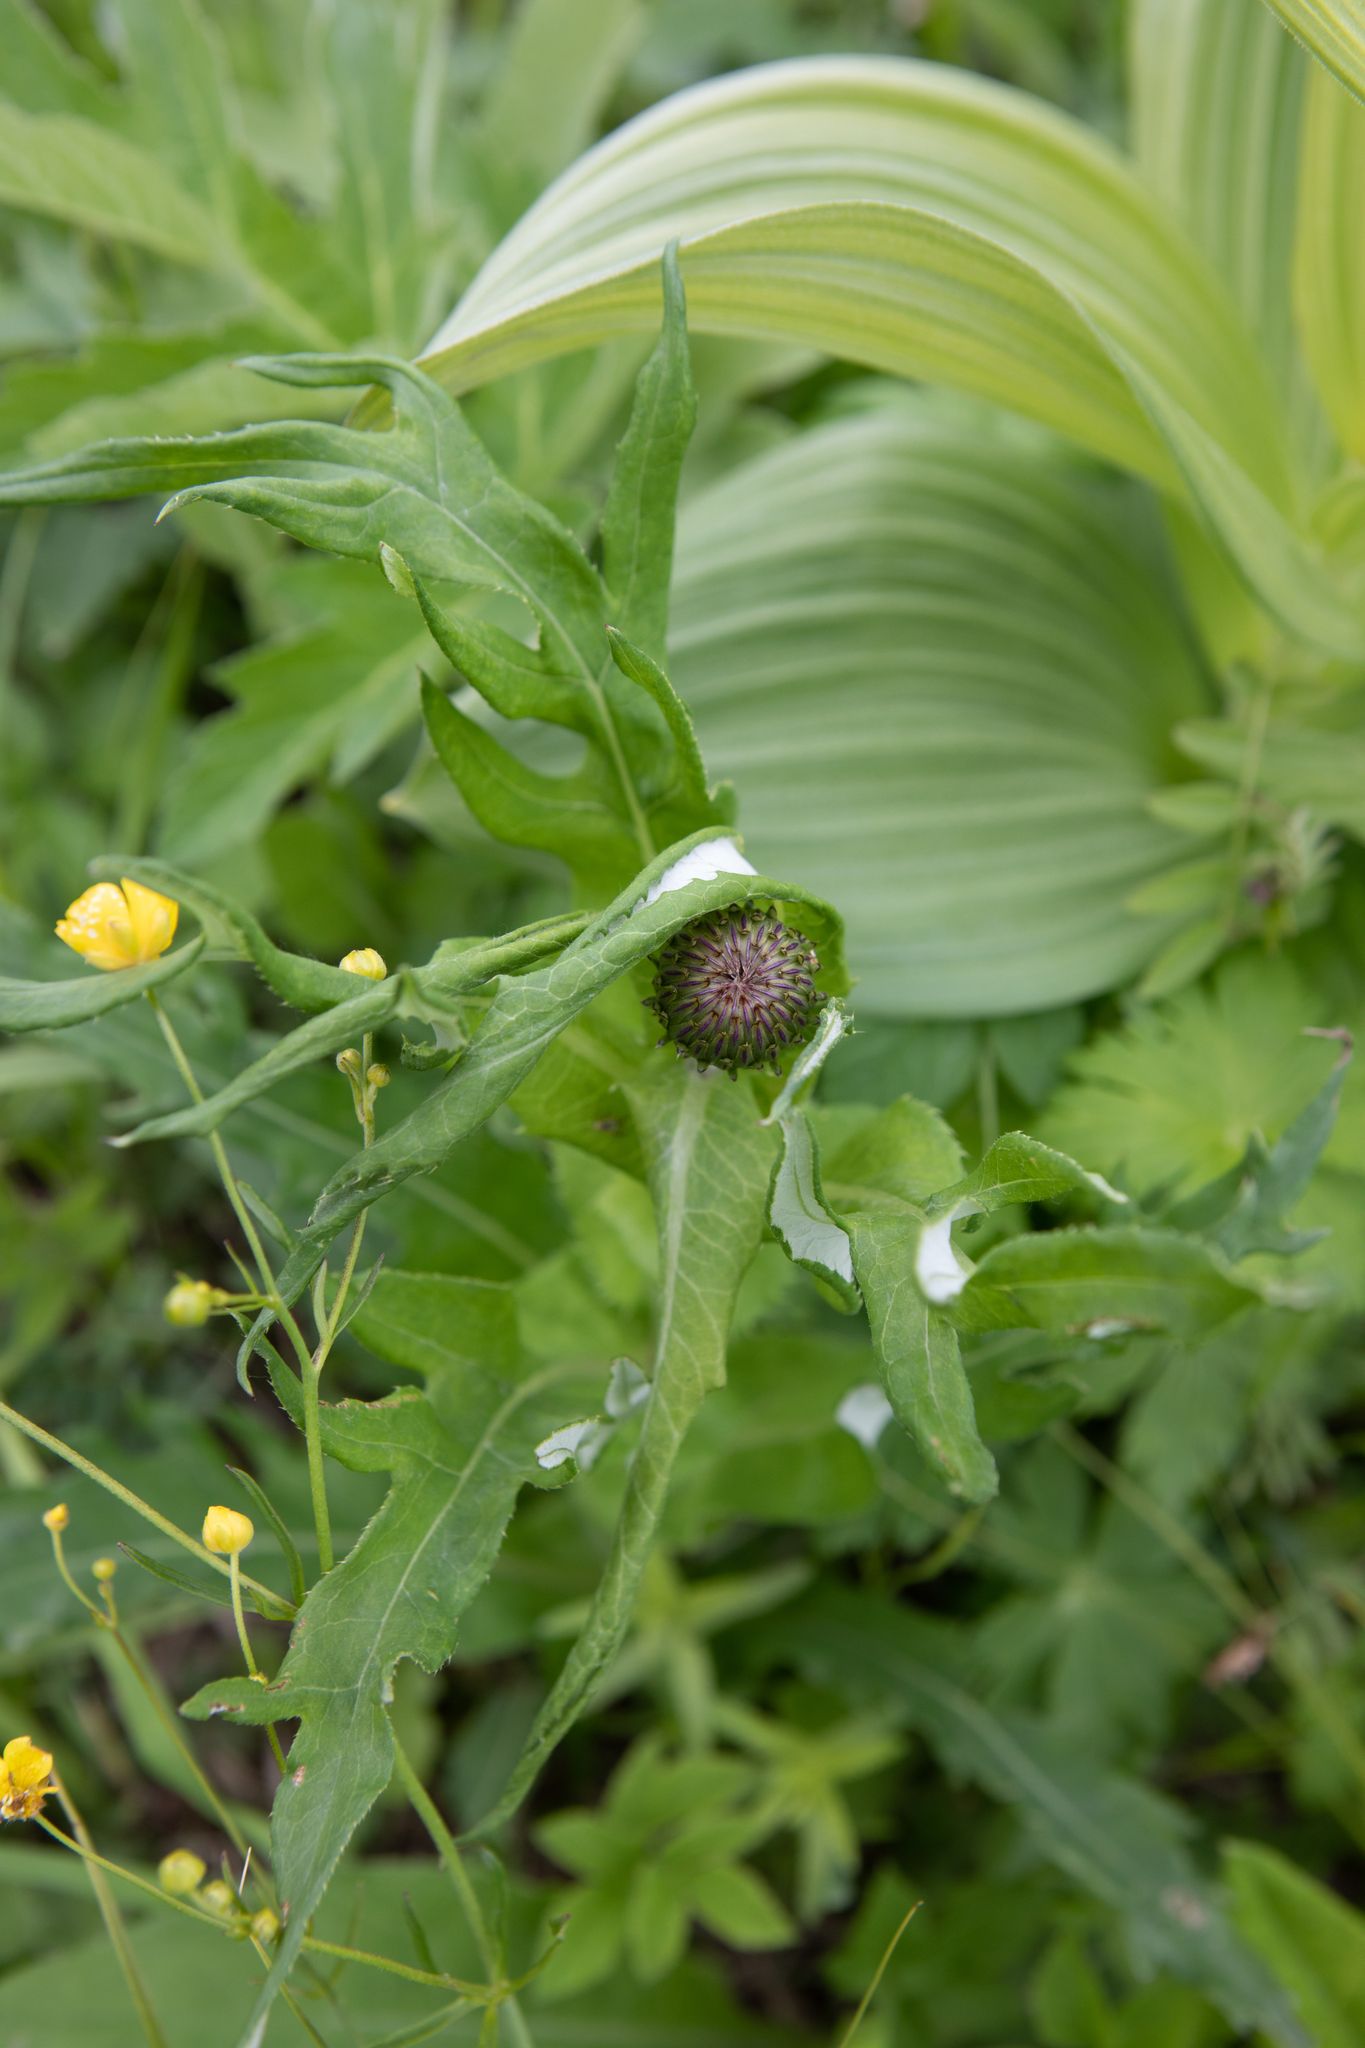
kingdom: Plantae
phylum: Tracheophyta
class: Magnoliopsida
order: Asterales
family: Asteraceae
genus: Cirsium
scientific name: Cirsium heterophyllum
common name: Melancholy thistle
